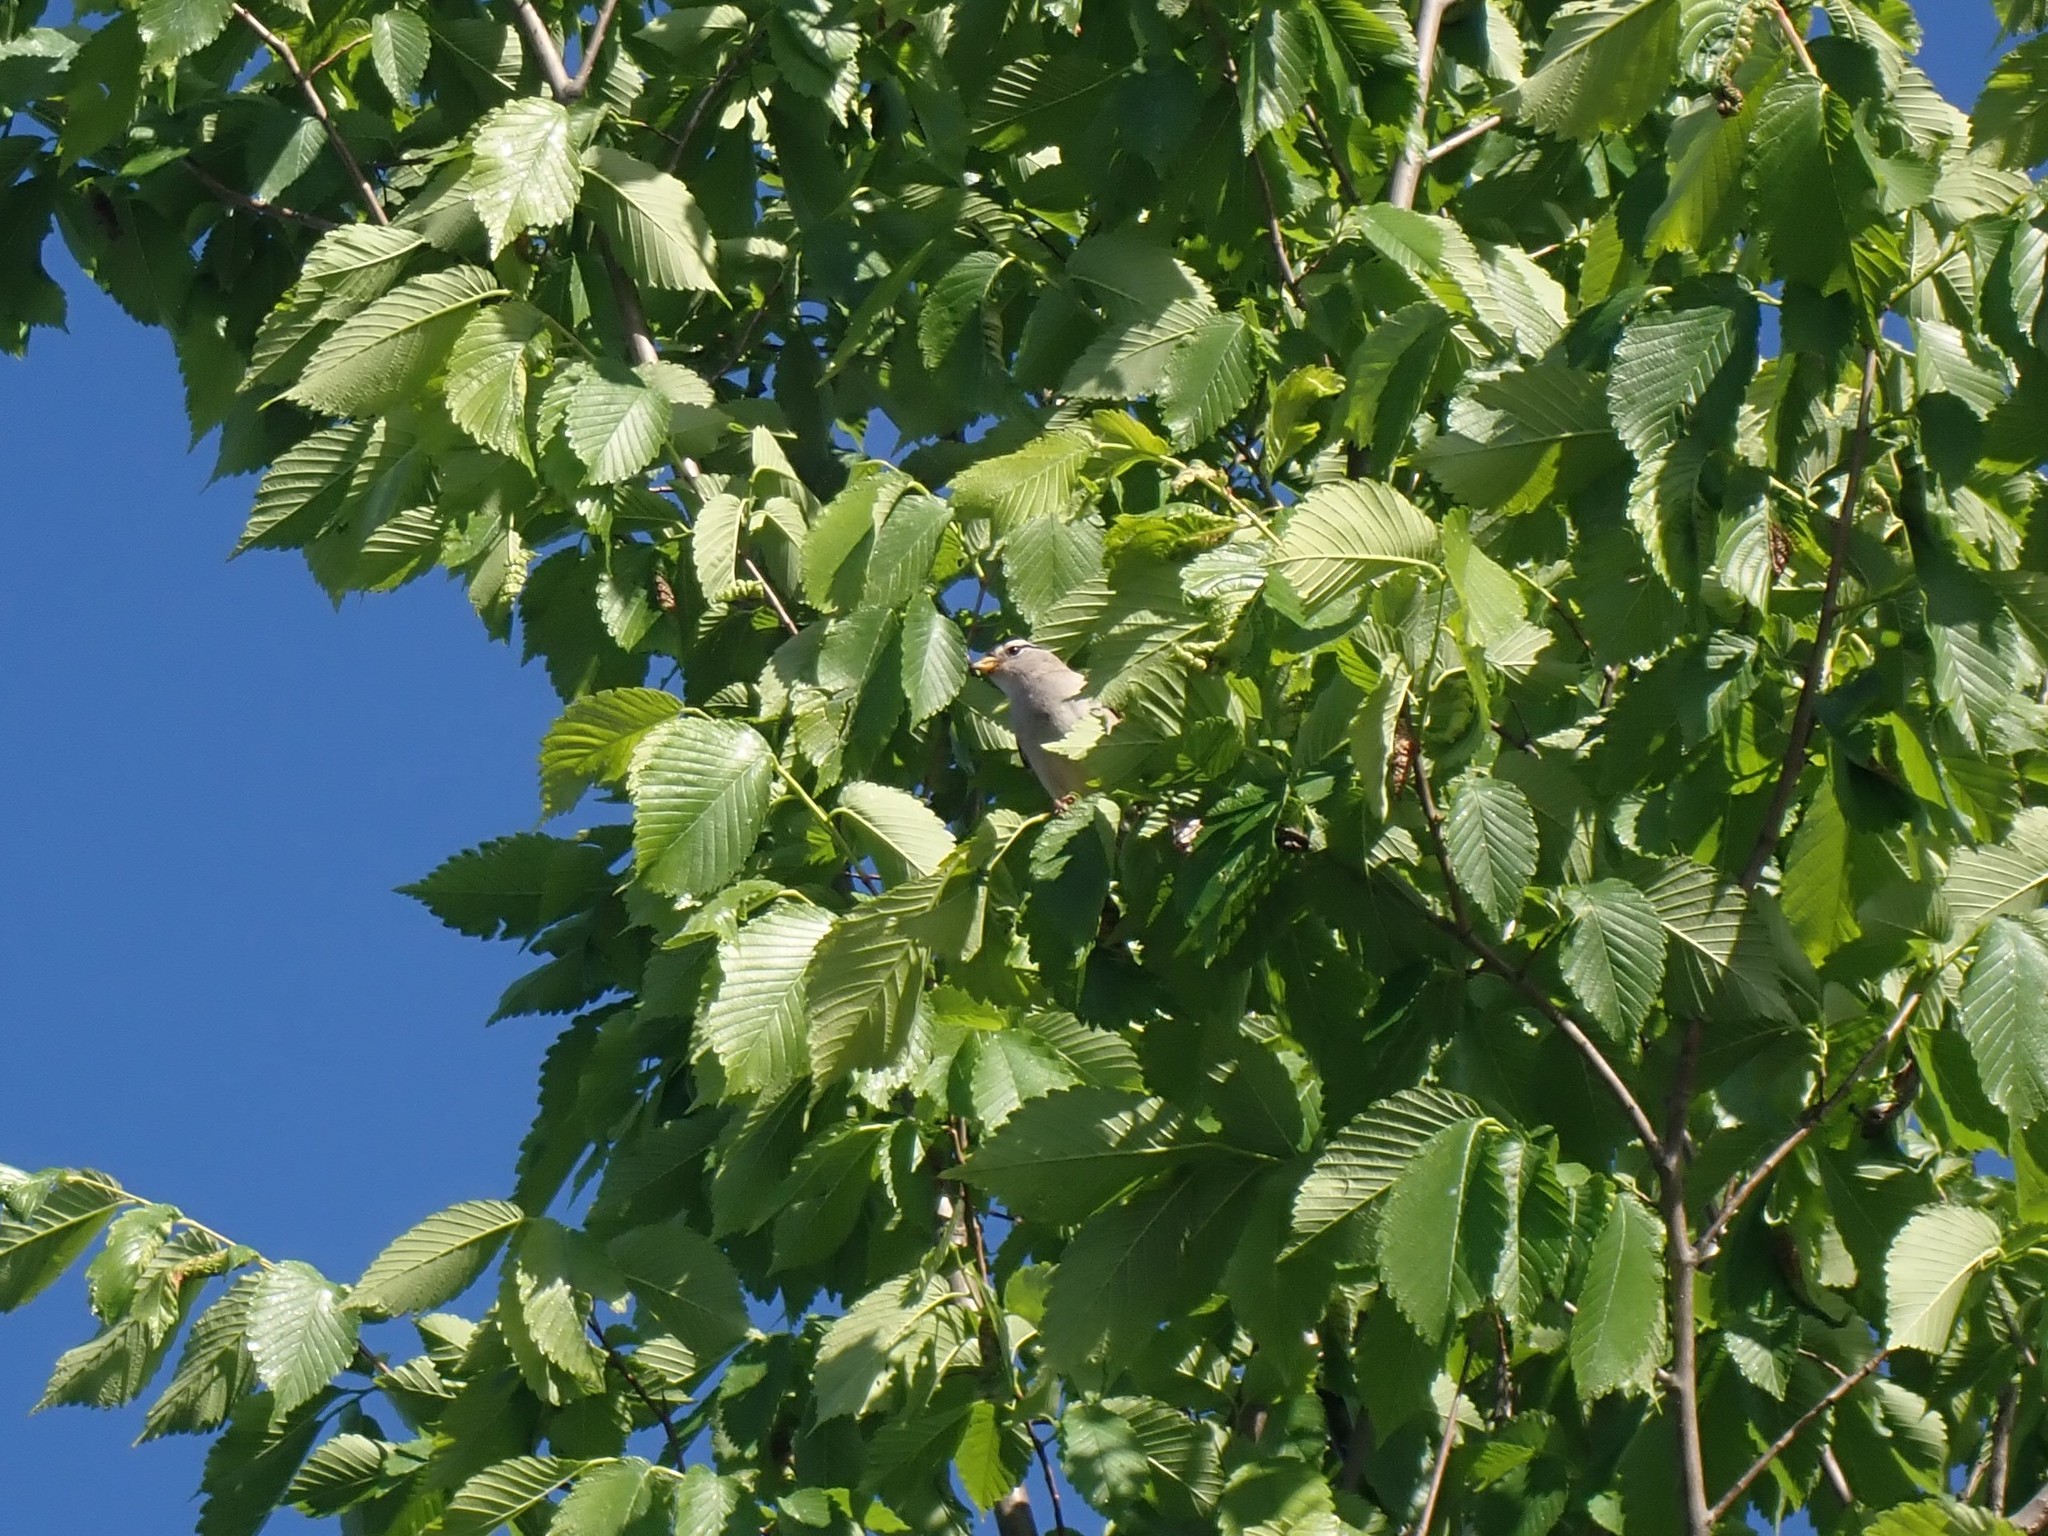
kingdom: Animalia
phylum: Chordata
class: Aves
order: Passeriformes
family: Passerellidae
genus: Zonotrichia
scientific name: Zonotrichia leucophrys
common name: White-crowned sparrow
